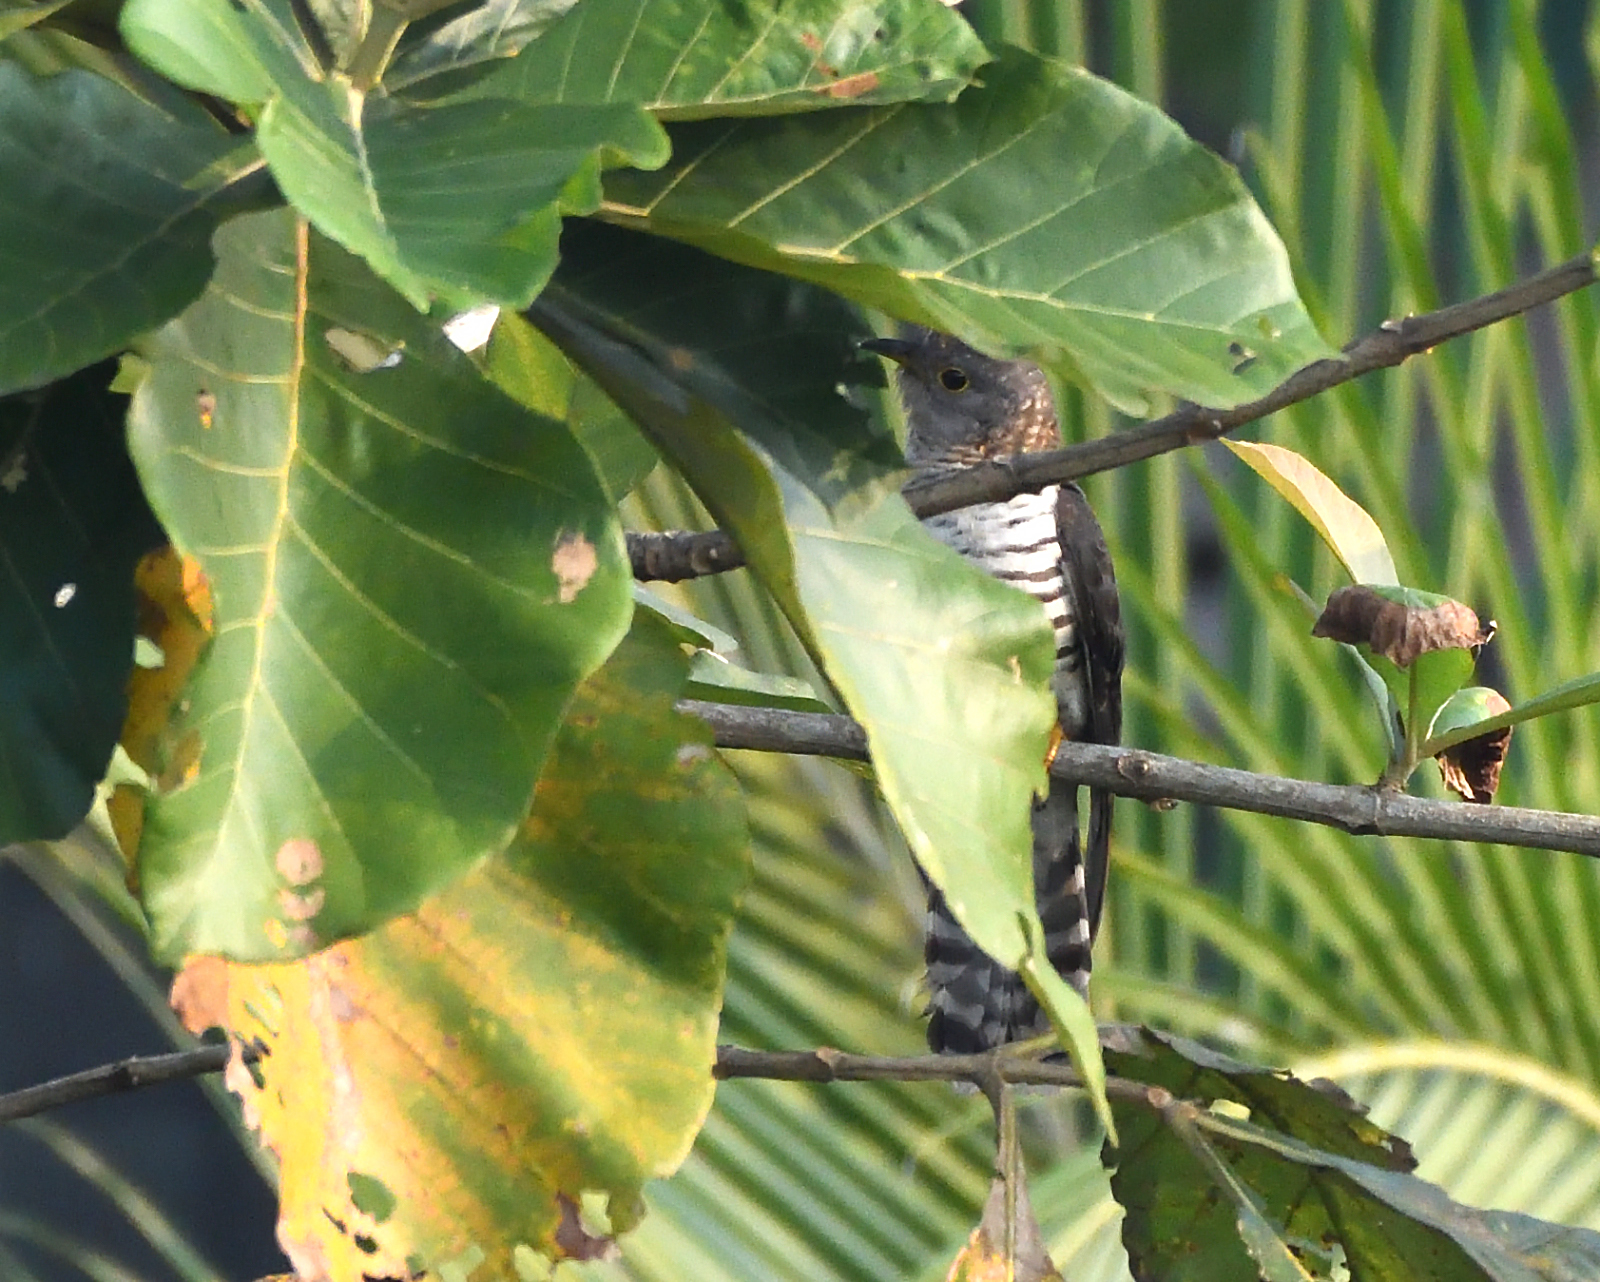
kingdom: Animalia
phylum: Chordata
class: Aves
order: Cuculiformes
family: Cuculidae
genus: Cuculus
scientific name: Cuculus micropterus
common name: Indian cuckoo
